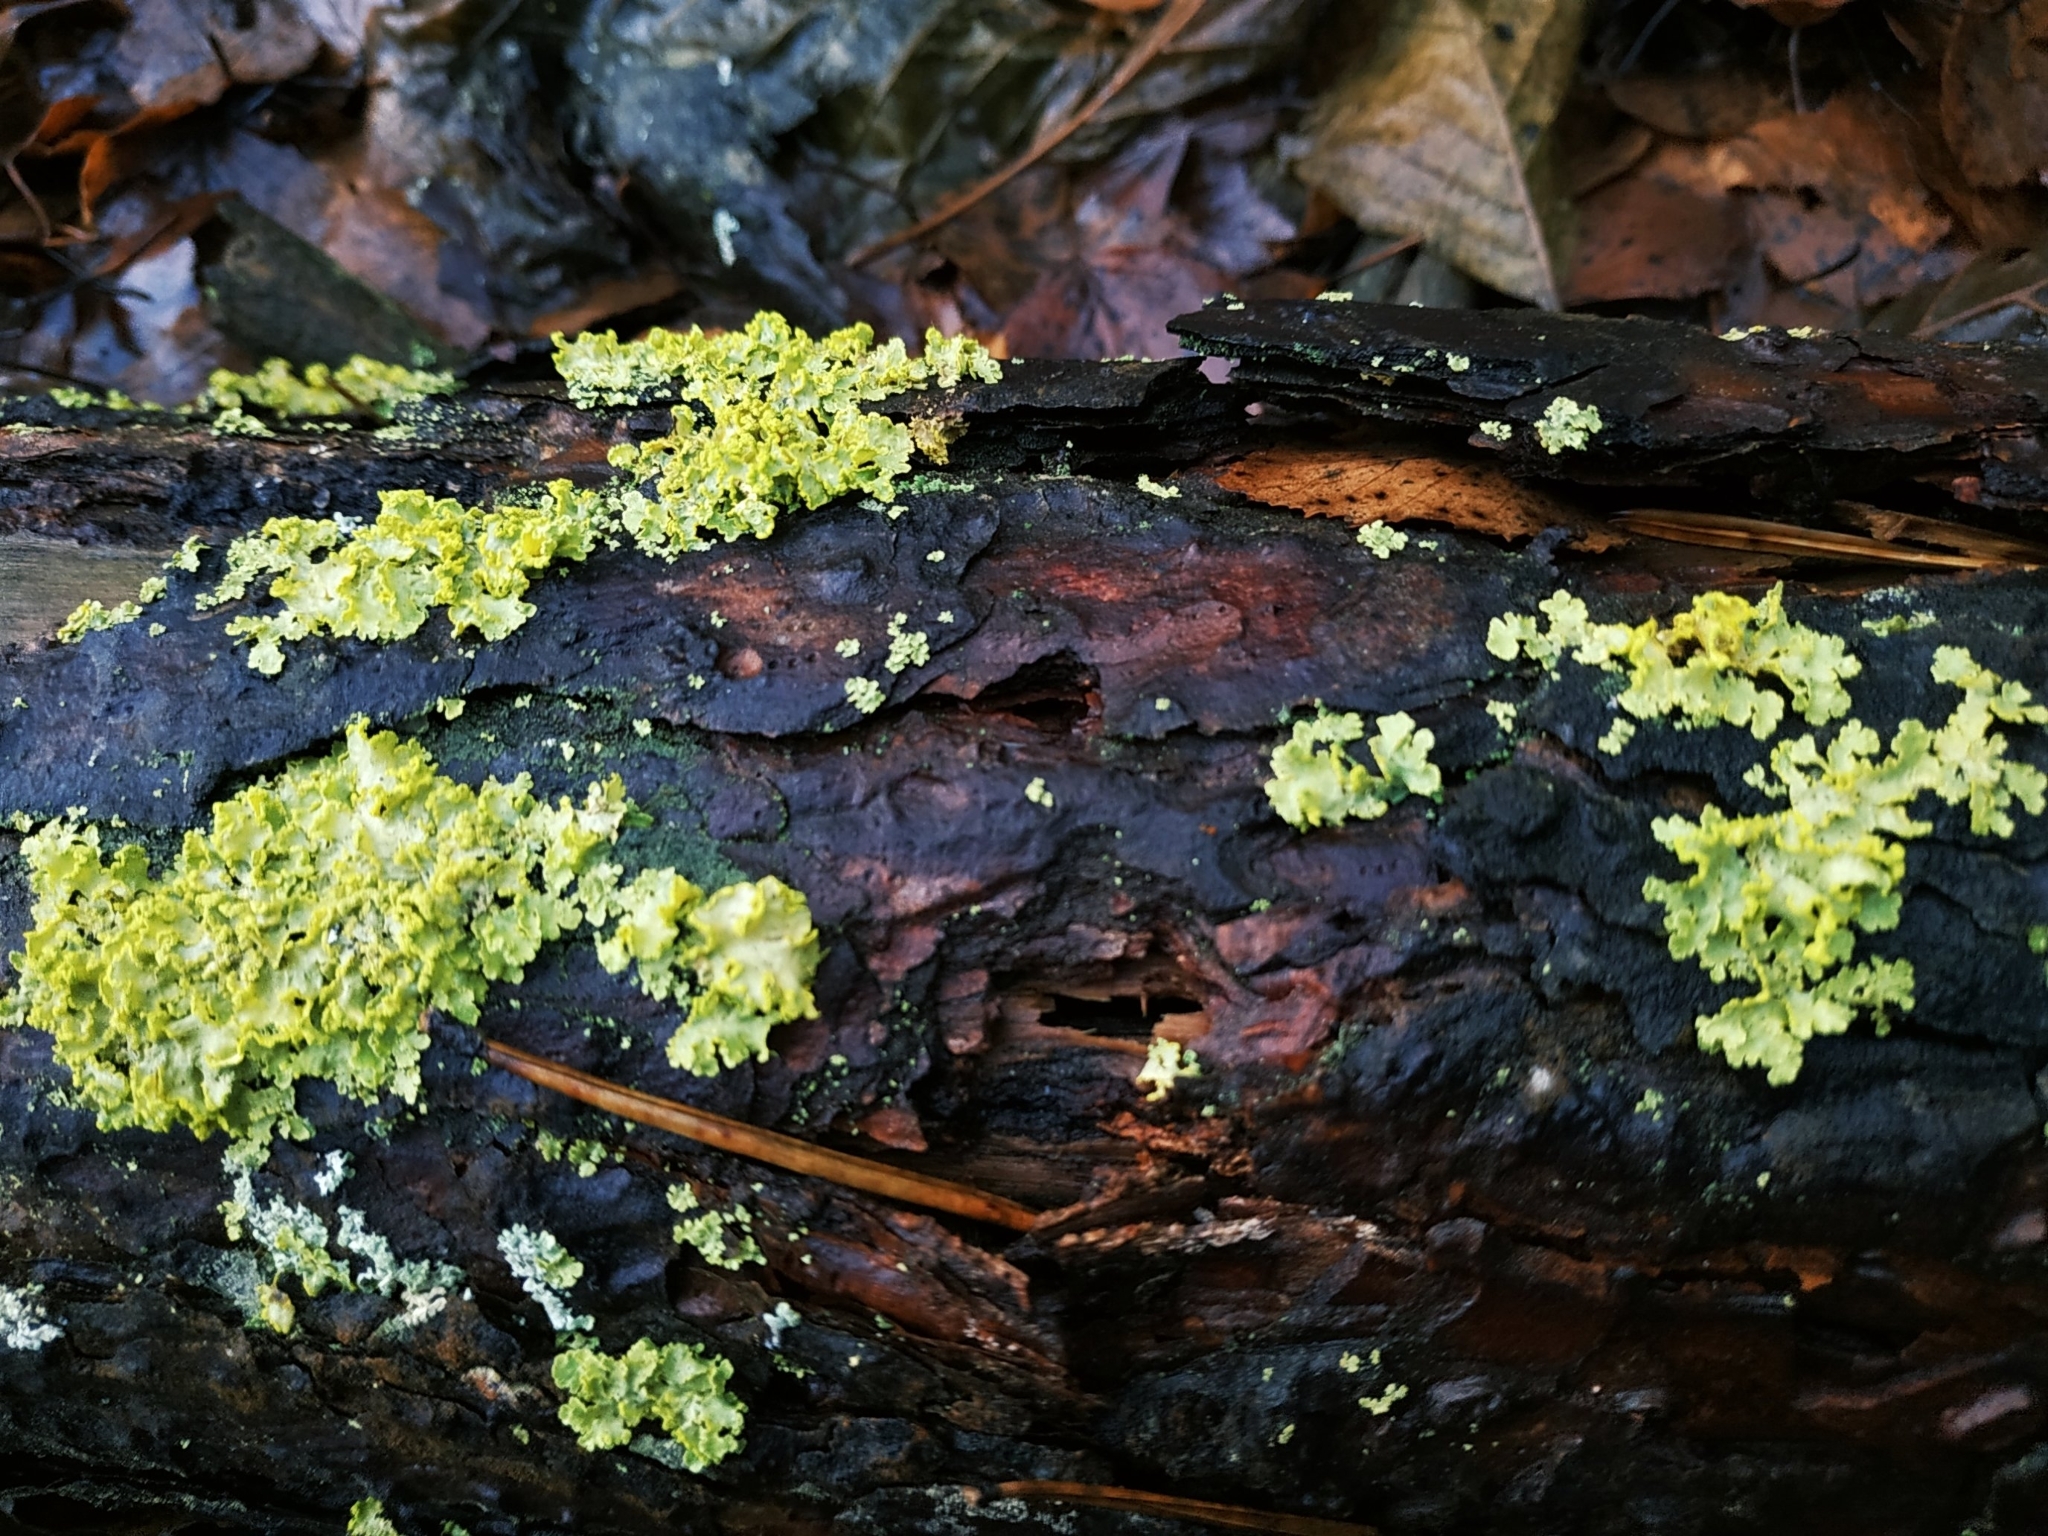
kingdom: Fungi
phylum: Ascomycota
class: Lecanoromycetes
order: Lecanorales
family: Parmeliaceae
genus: Vulpicida
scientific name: Vulpicida pinastri
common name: Powdered sunshine lichen
